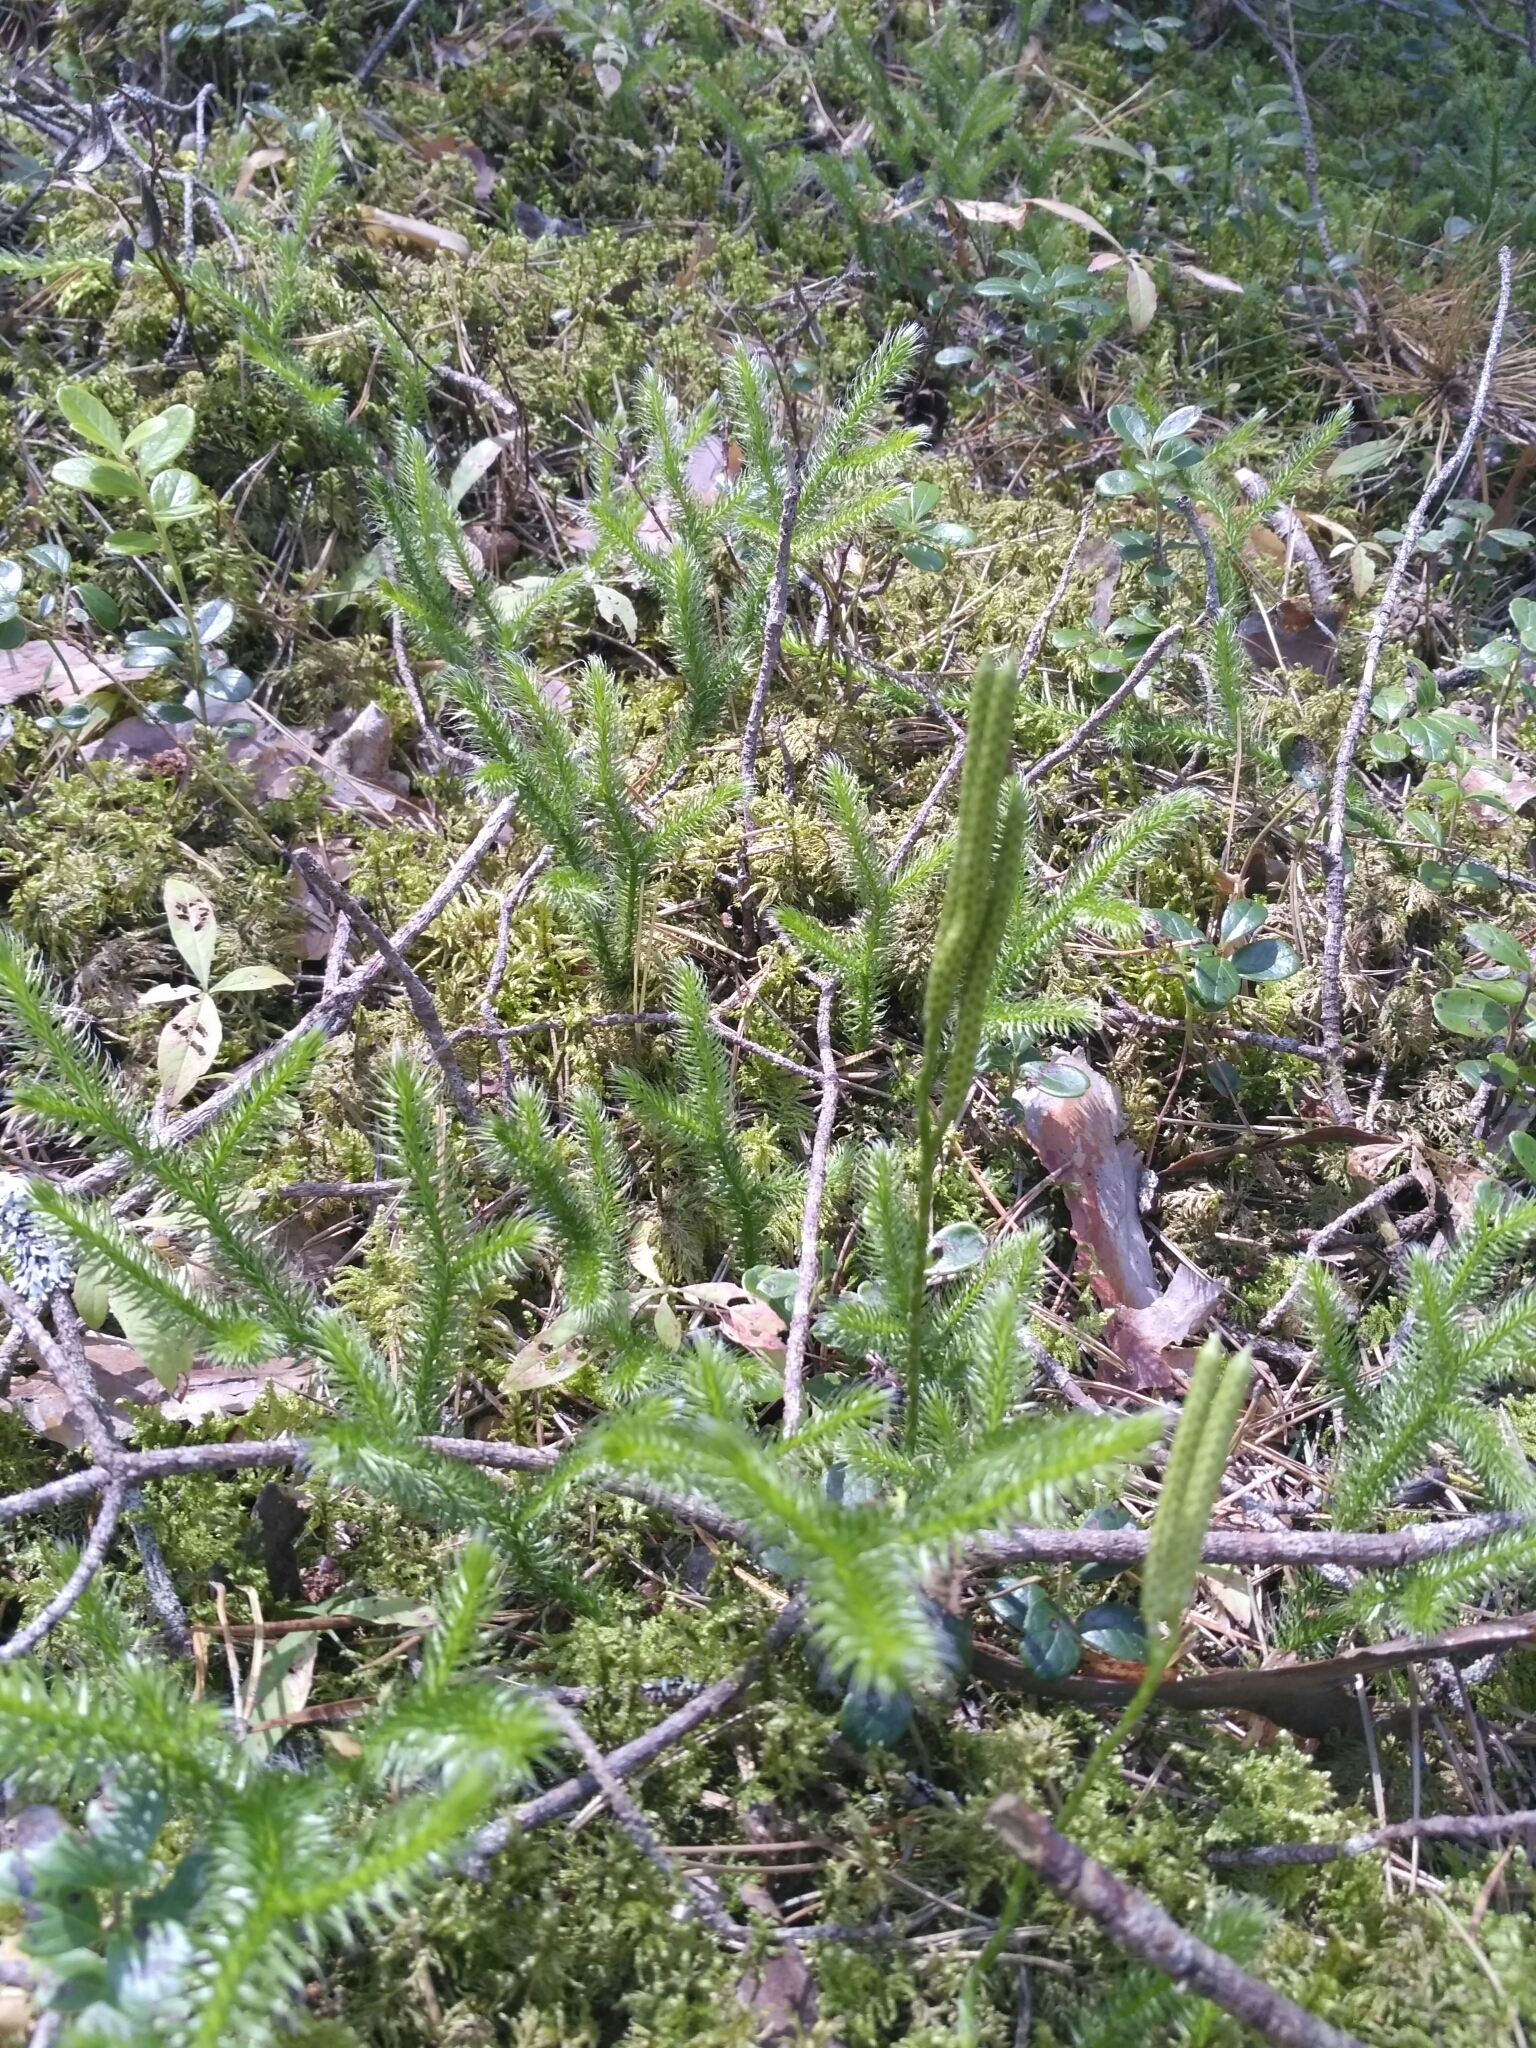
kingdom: Plantae
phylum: Tracheophyta
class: Lycopodiopsida
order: Lycopodiales
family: Lycopodiaceae
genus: Lycopodium
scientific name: Lycopodium clavatum
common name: Stag's-horn clubmoss
